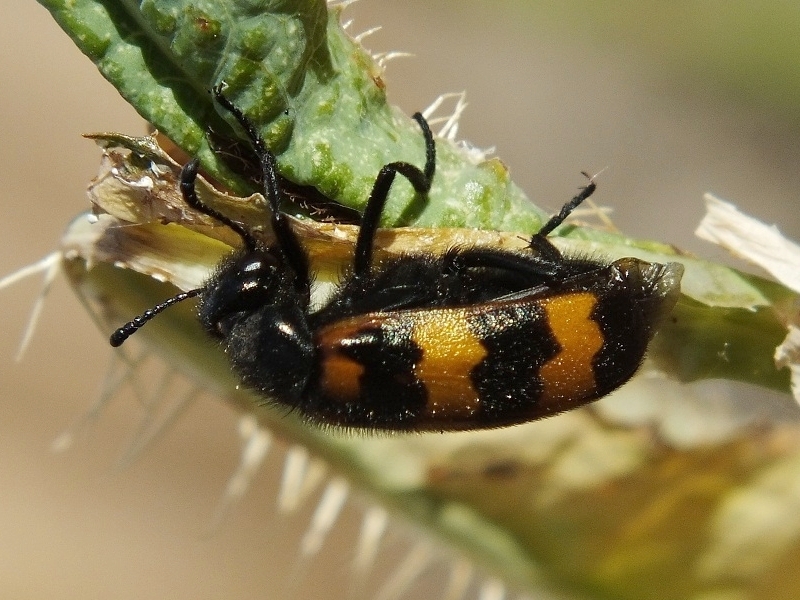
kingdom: Animalia
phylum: Arthropoda
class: Insecta
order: Coleoptera
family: Meloidae
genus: Mylabris
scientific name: Mylabris variabilis
